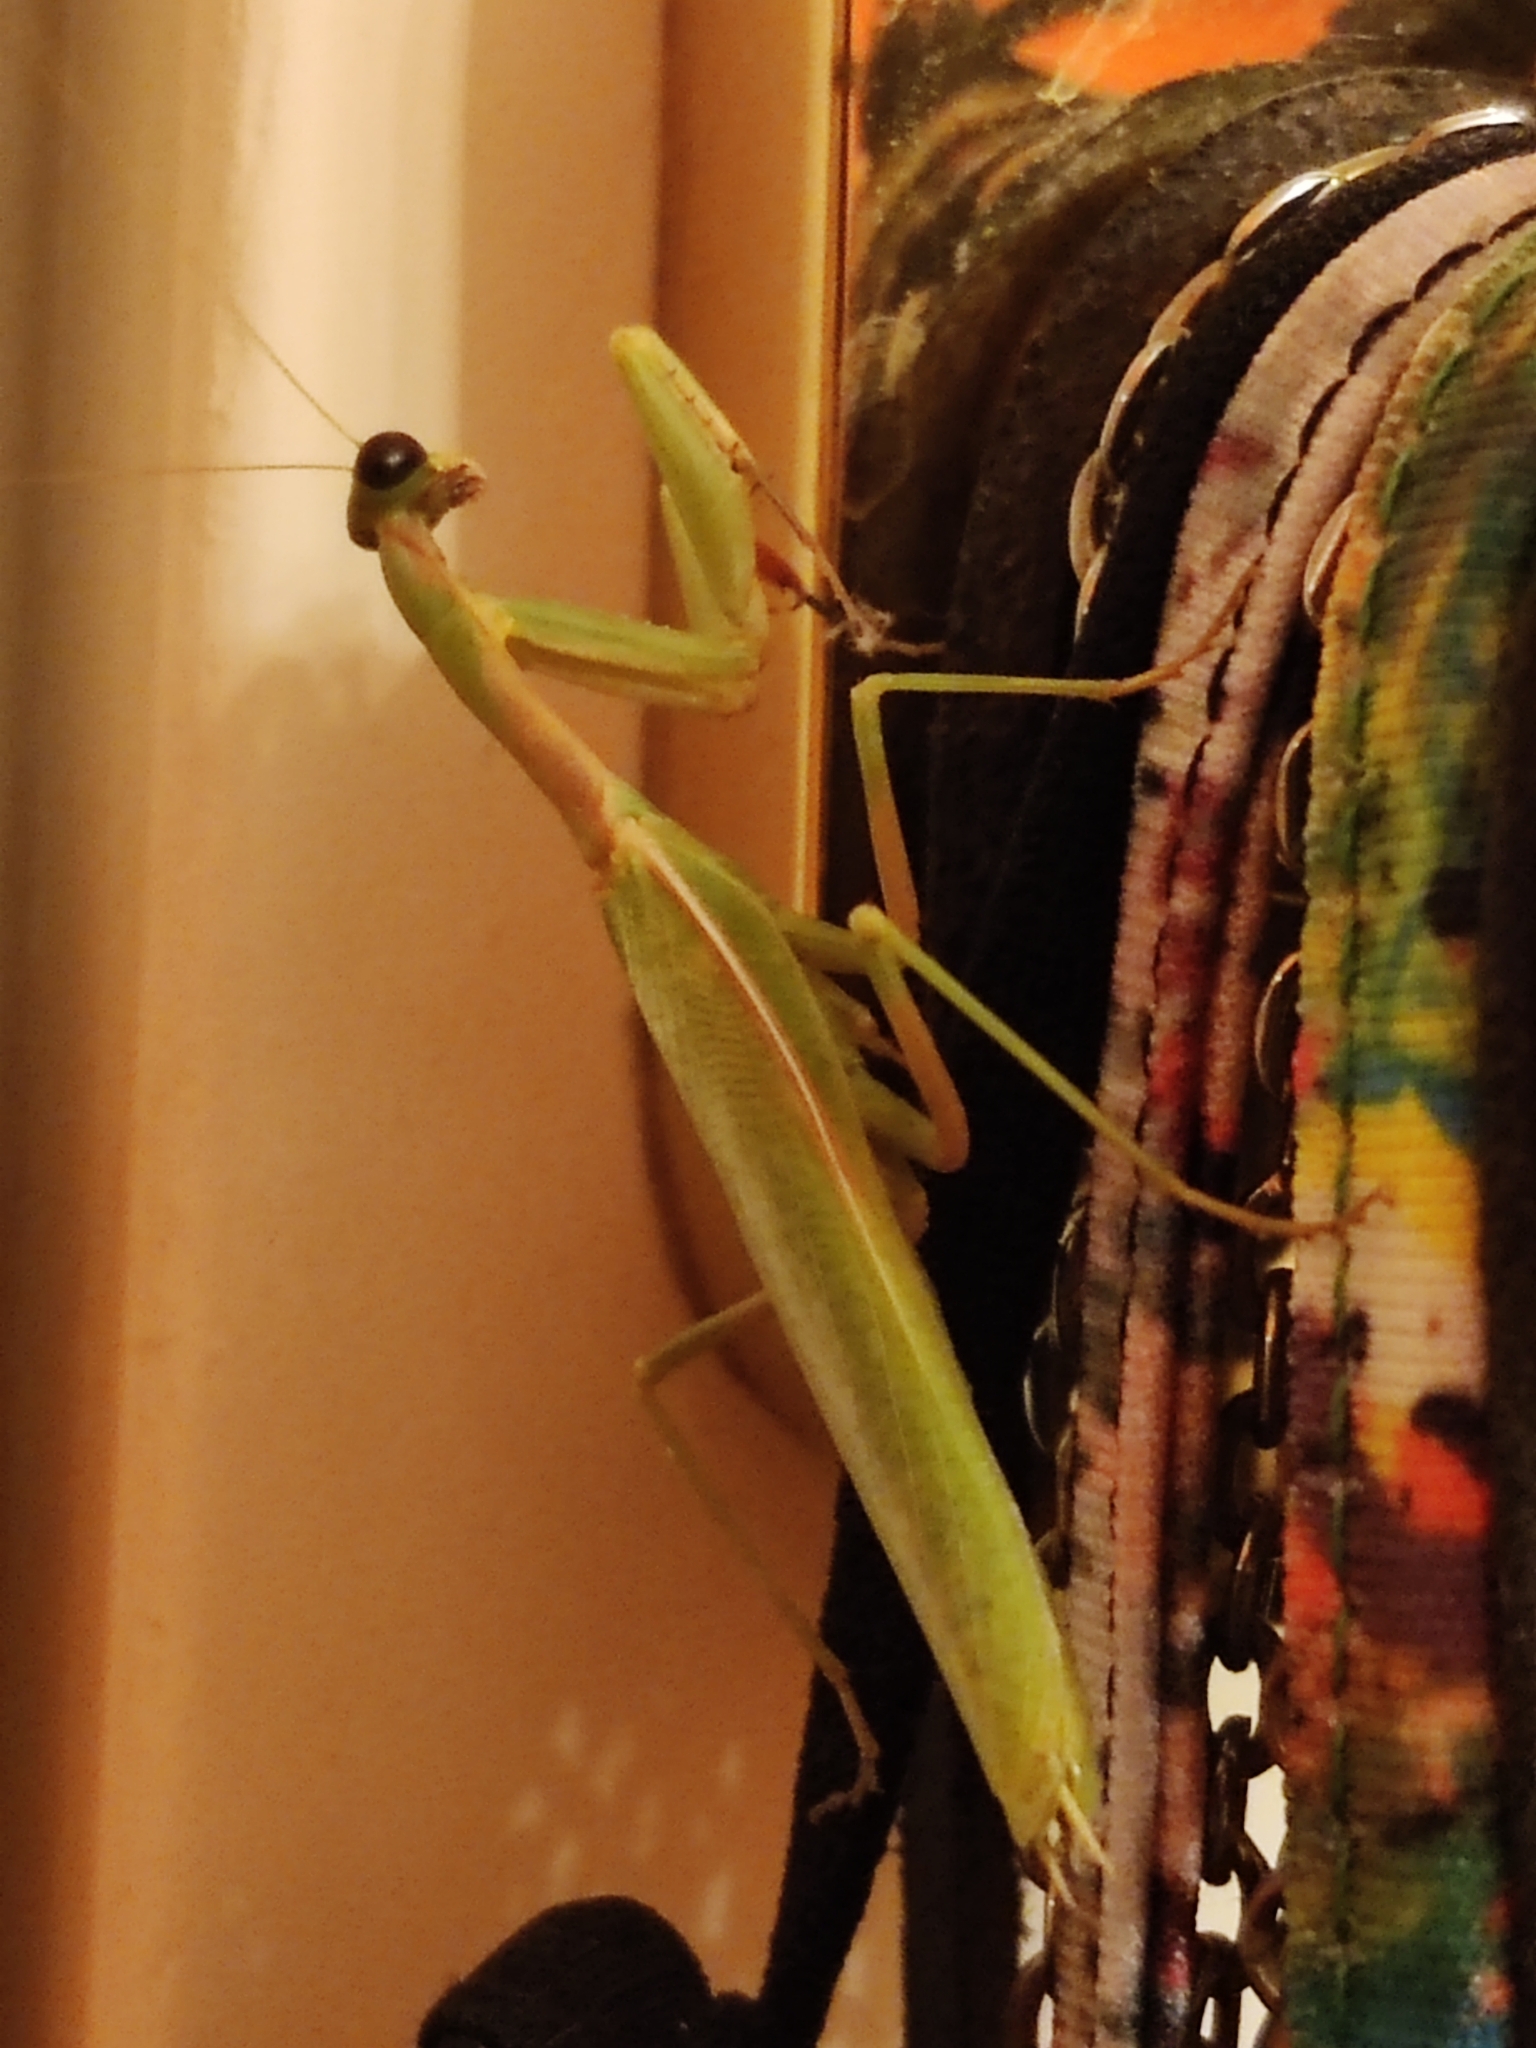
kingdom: Animalia
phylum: Arthropoda
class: Insecta
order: Mantodea
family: Eremiaphilidae
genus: Iris
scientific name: Iris oratoria
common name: Mediterranean mantis
